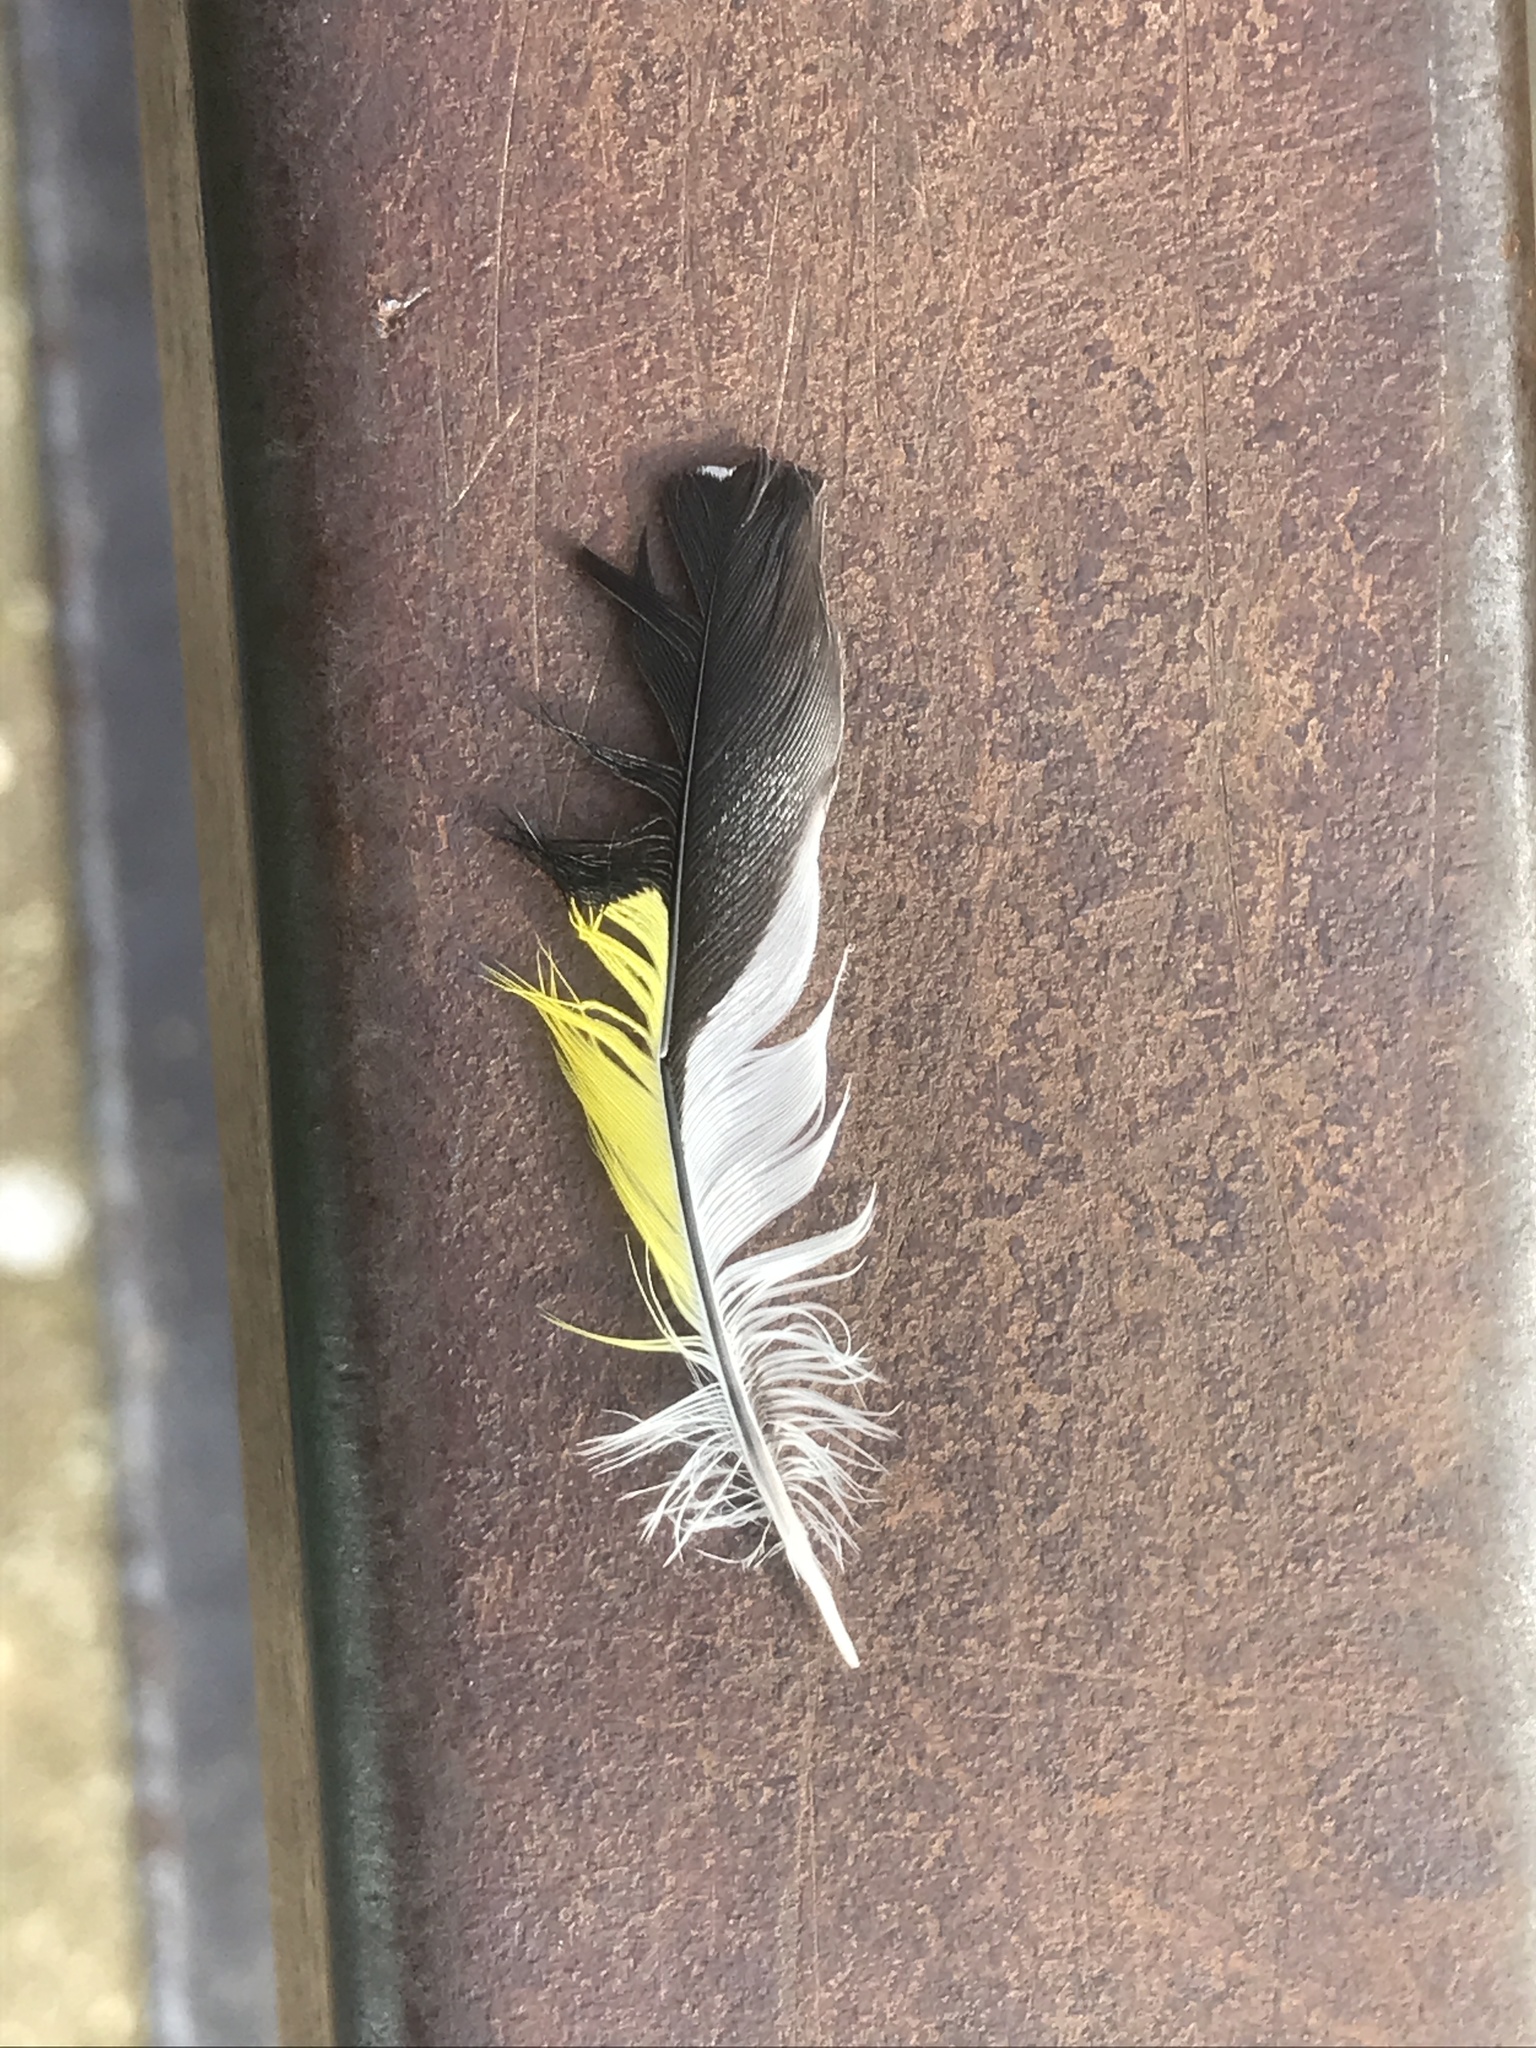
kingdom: Animalia
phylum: Chordata
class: Aves
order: Passeriformes
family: Fringillidae
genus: Carduelis
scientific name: Carduelis carduelis
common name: European goldfinch
